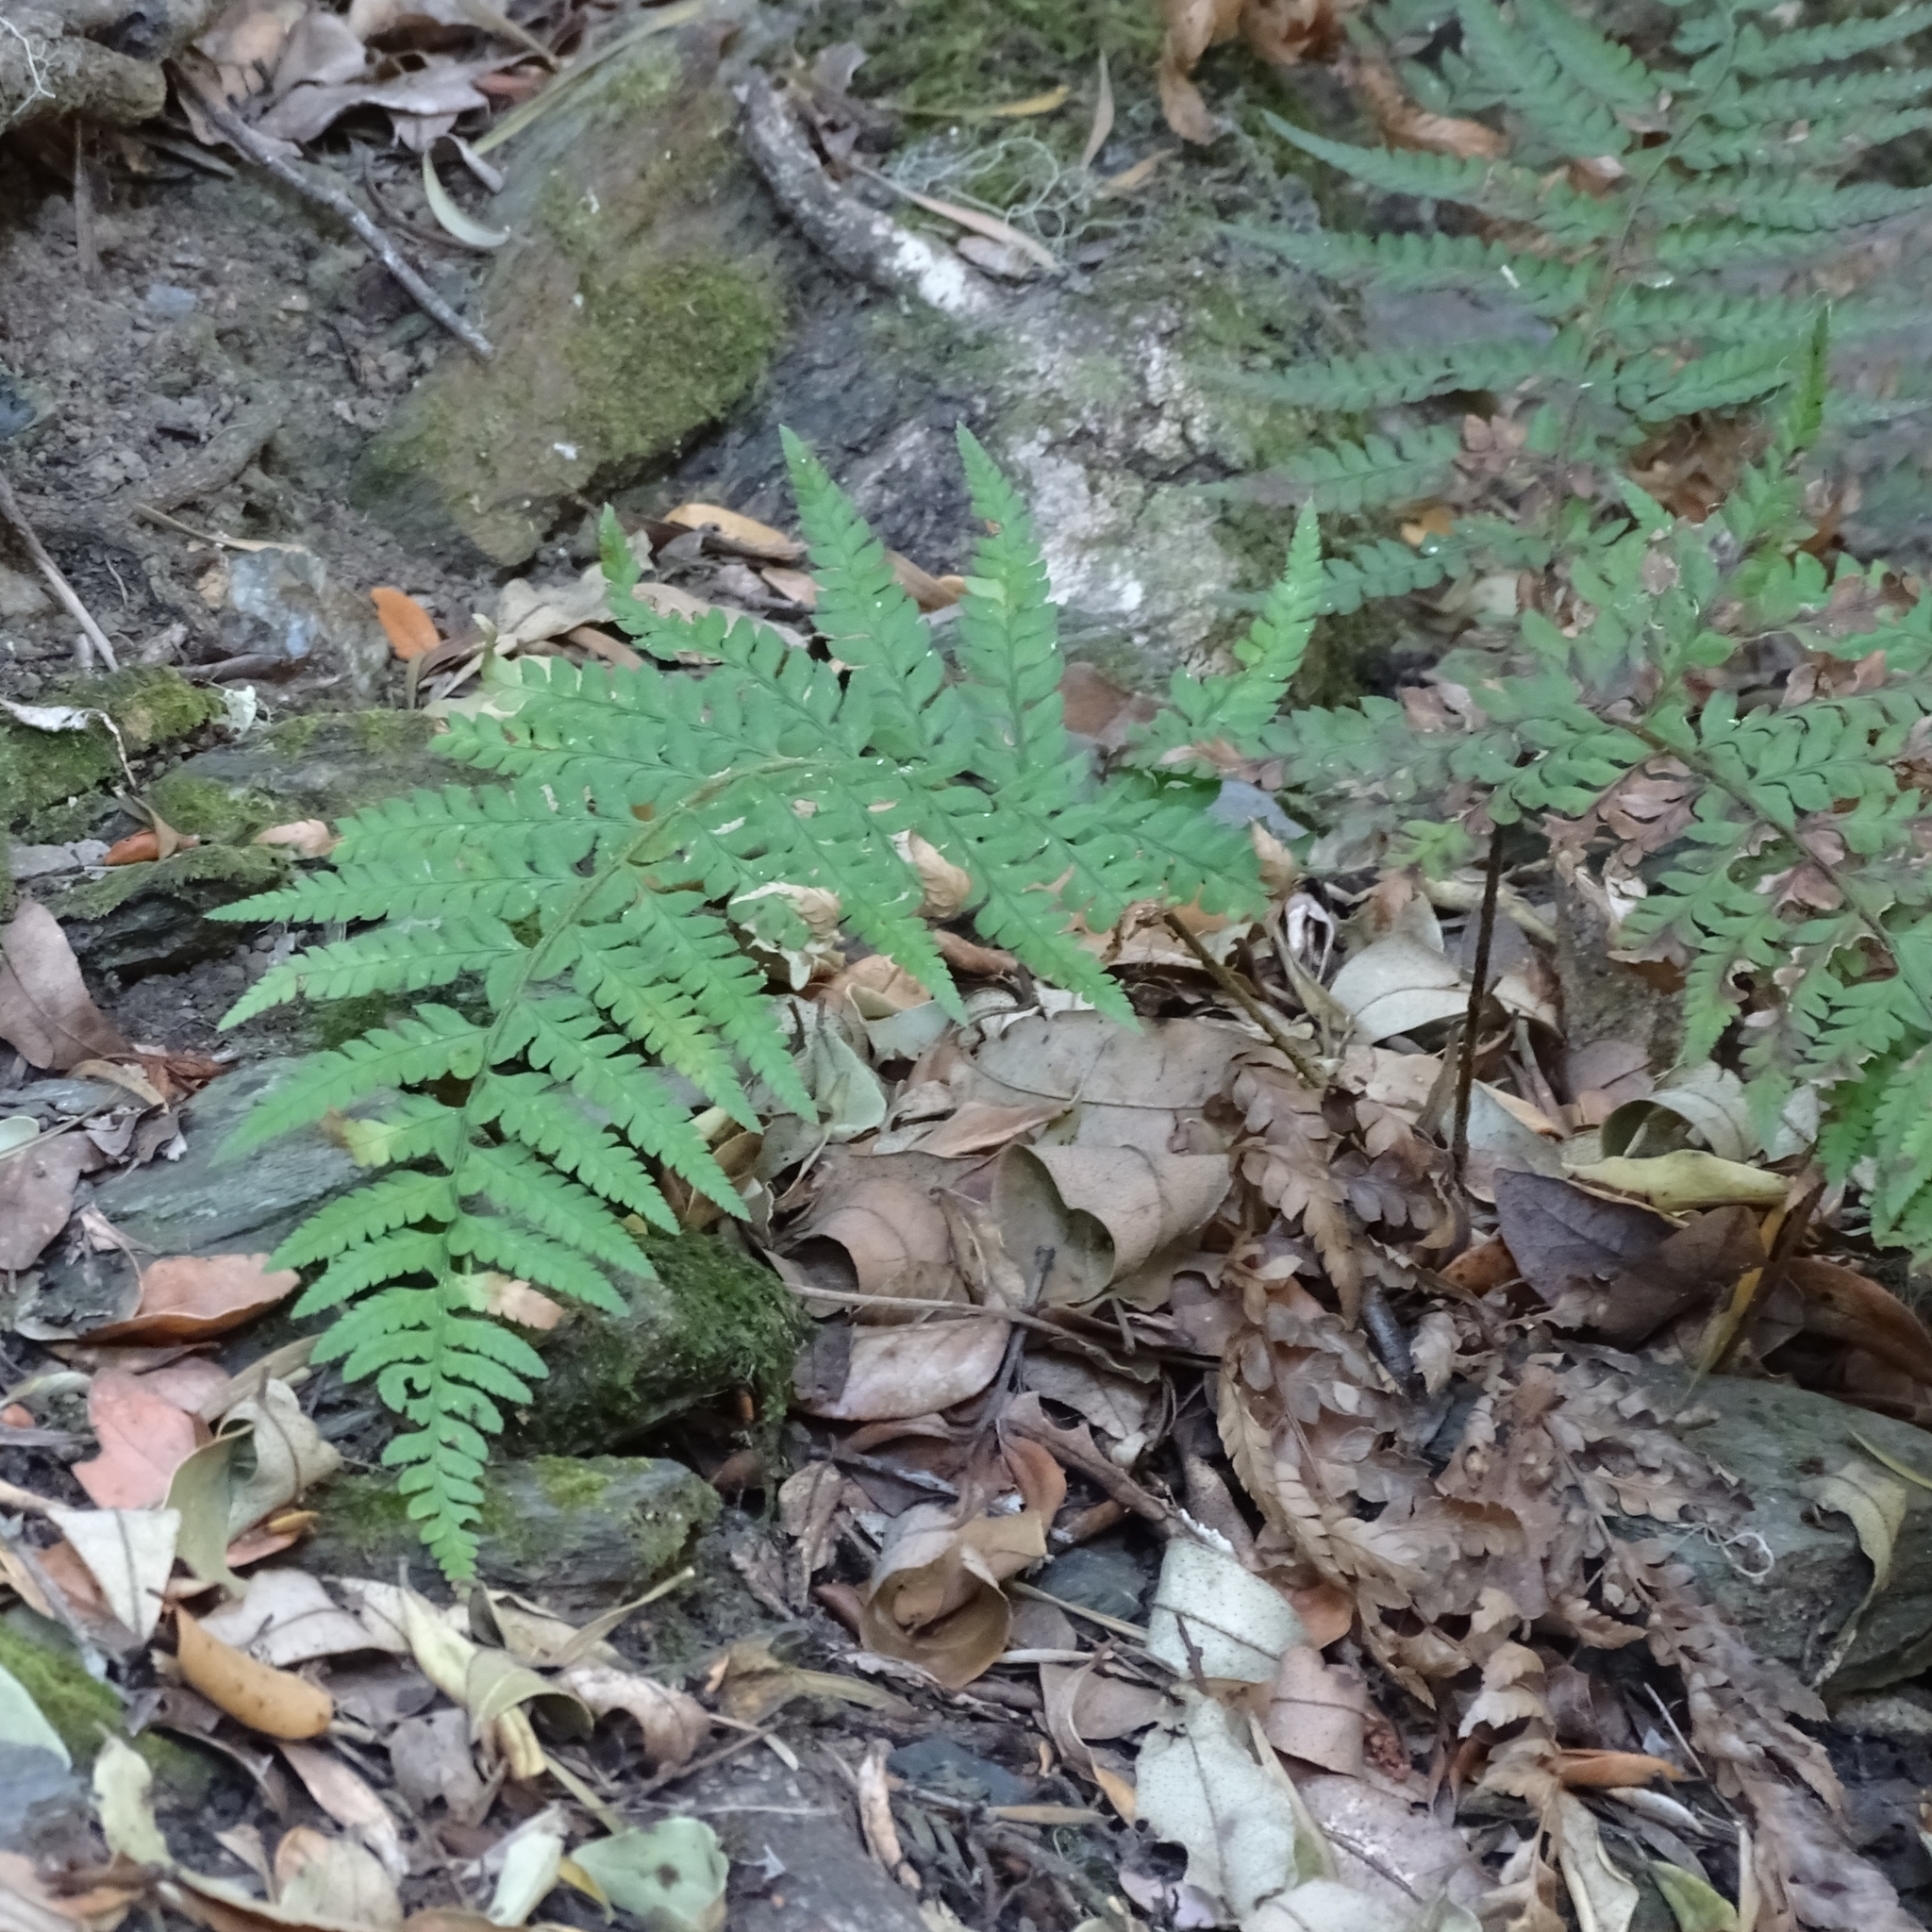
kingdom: Plantae
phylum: Tracheophyta
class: Polypodiopsida
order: Polypodiales
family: Dryopteridaceae
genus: Polystichum
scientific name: Polystichum chilense
